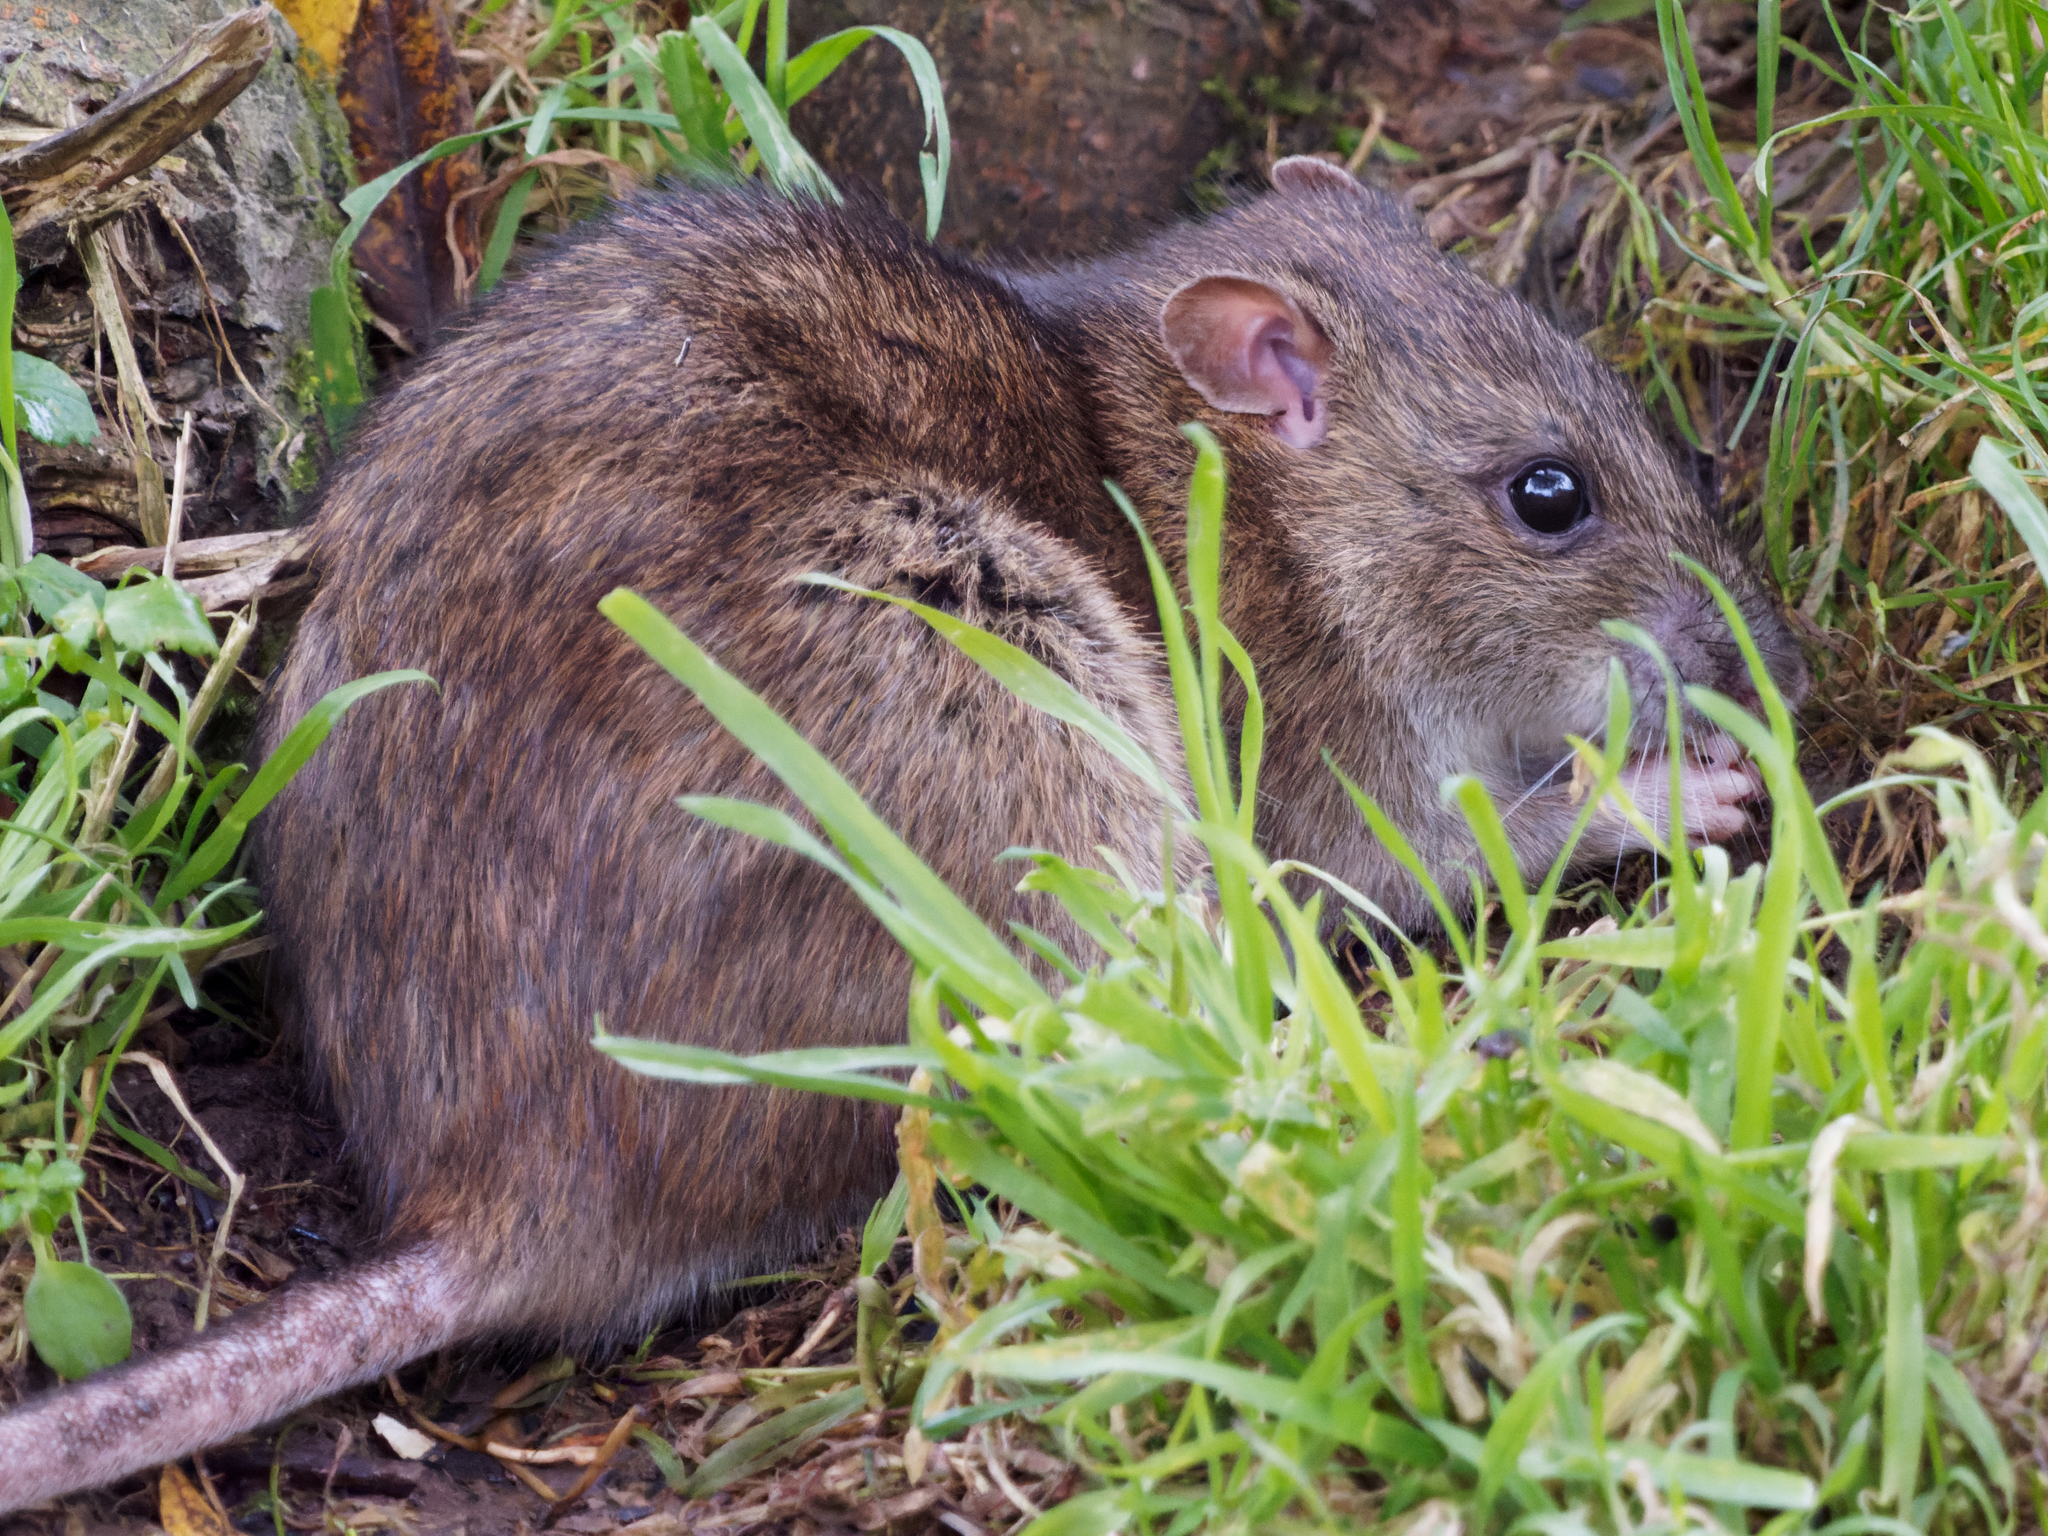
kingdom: Animalia
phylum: Chordata
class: Mammalia
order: Rodentia
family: Muridae
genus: Rattus
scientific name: Rattus norvegicus
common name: Brown rat
